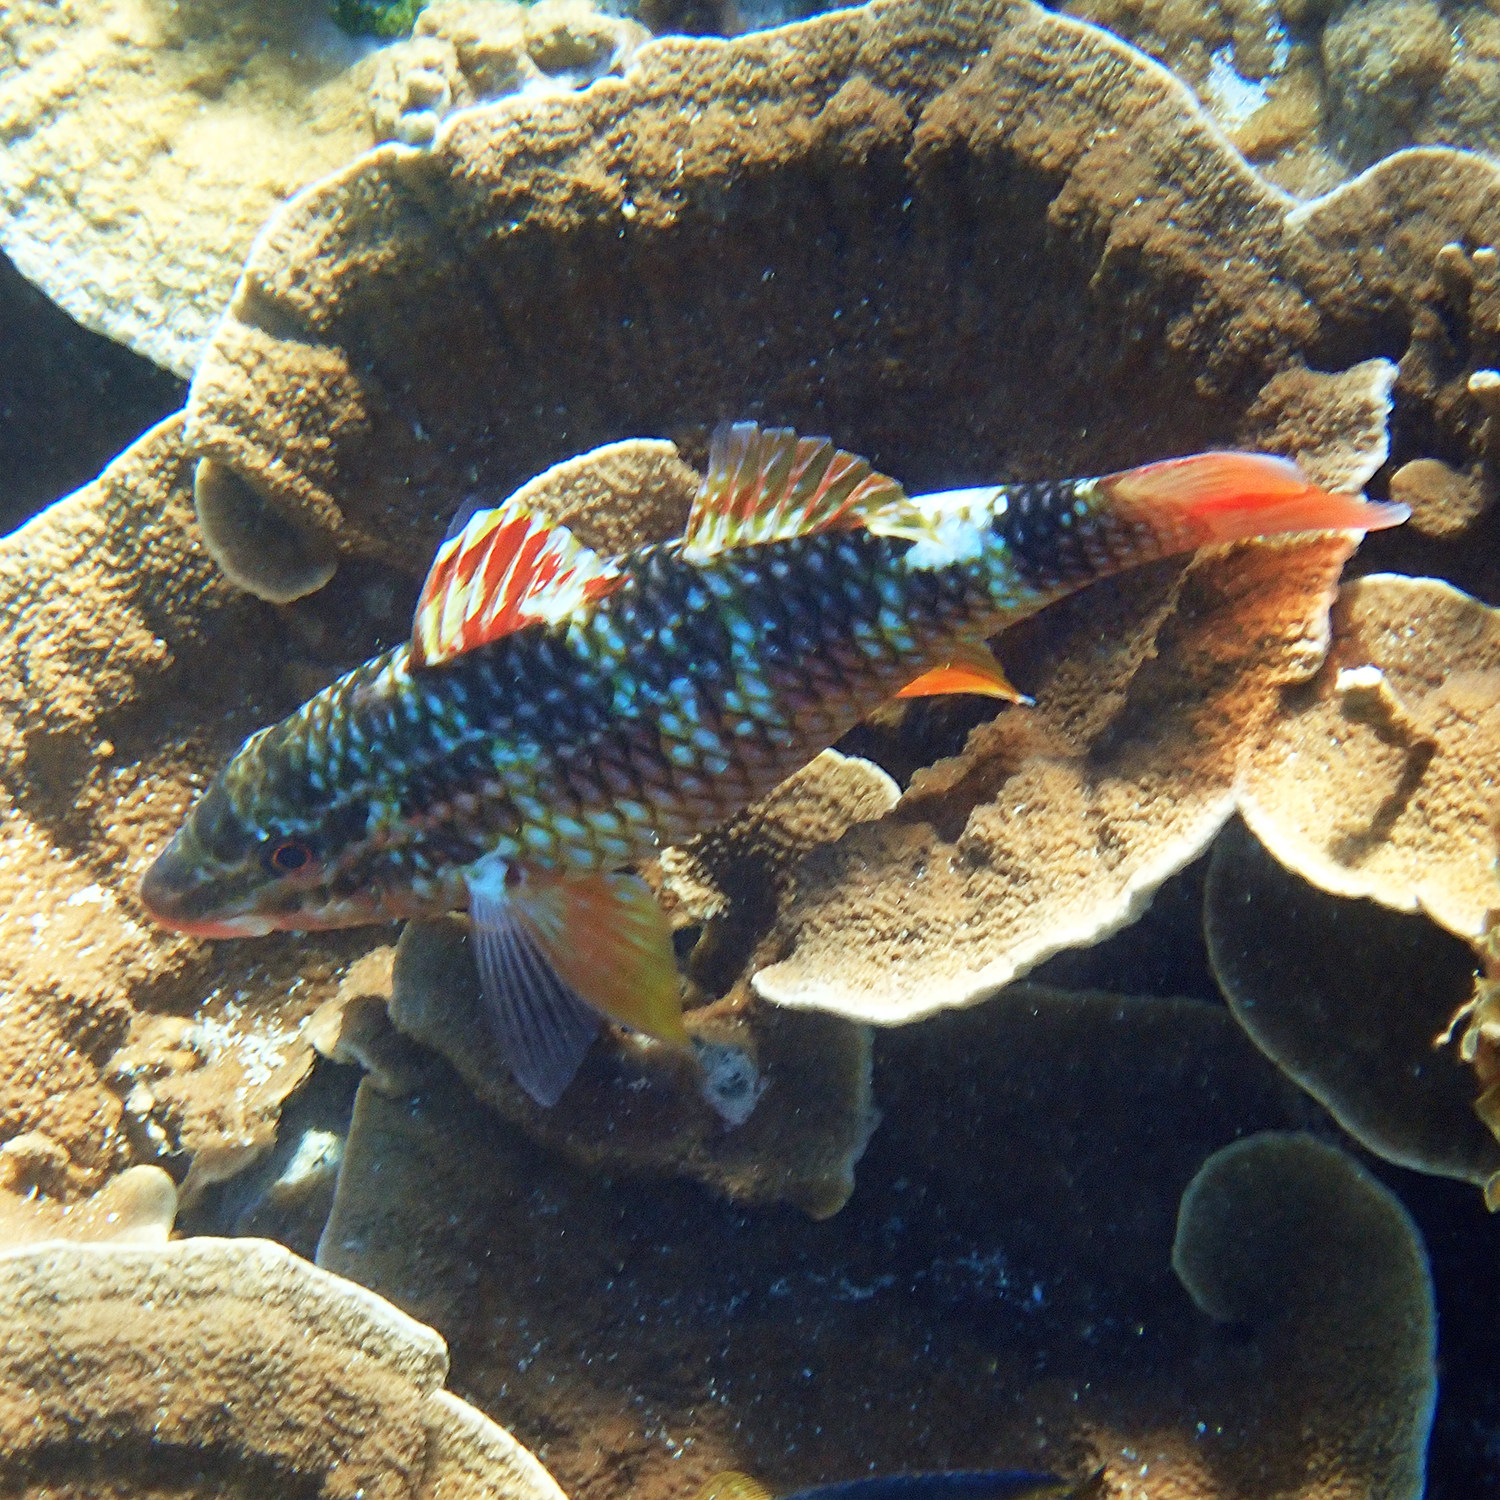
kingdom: Animalia
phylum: Chordata
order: Perciformes
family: Mullidae
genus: Parupeneus
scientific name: Parupeneus ciliatus
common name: White-lined goatfish
